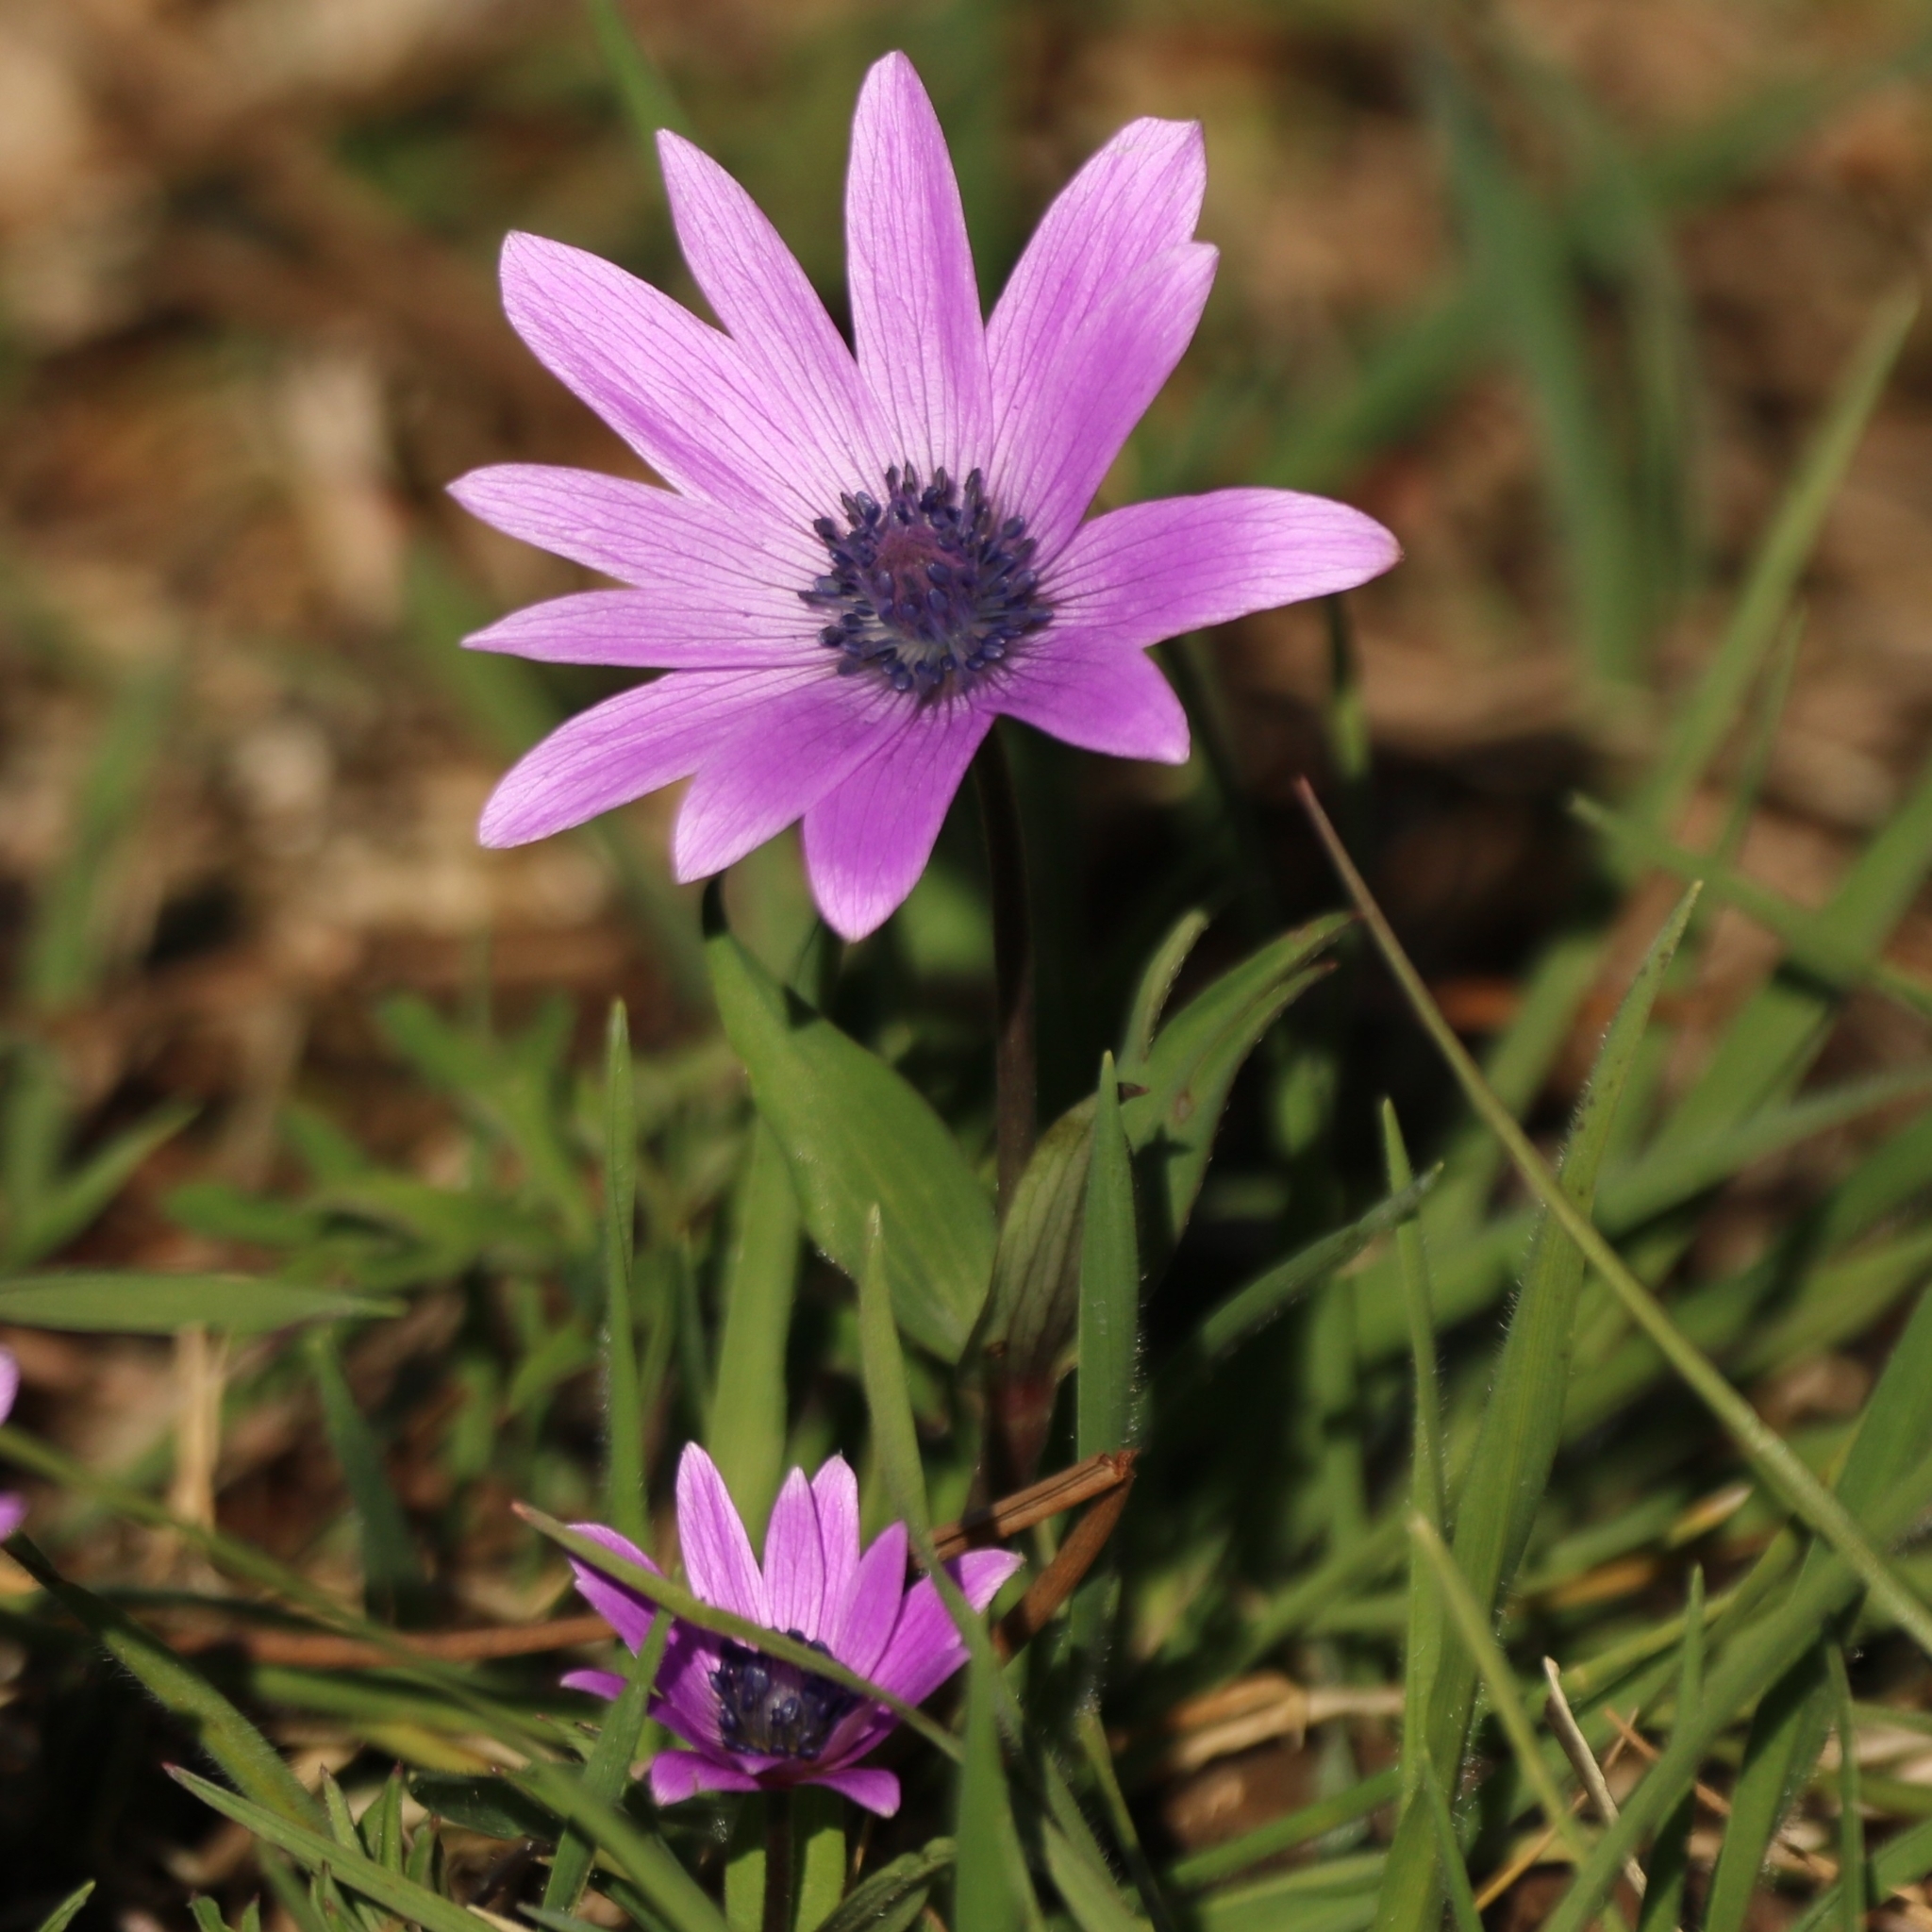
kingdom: Plantae
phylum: Tracheophyta
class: Magnoliopsida
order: Ranunculales
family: Ranunculaceae
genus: Anemone
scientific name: Anemone hortensis
